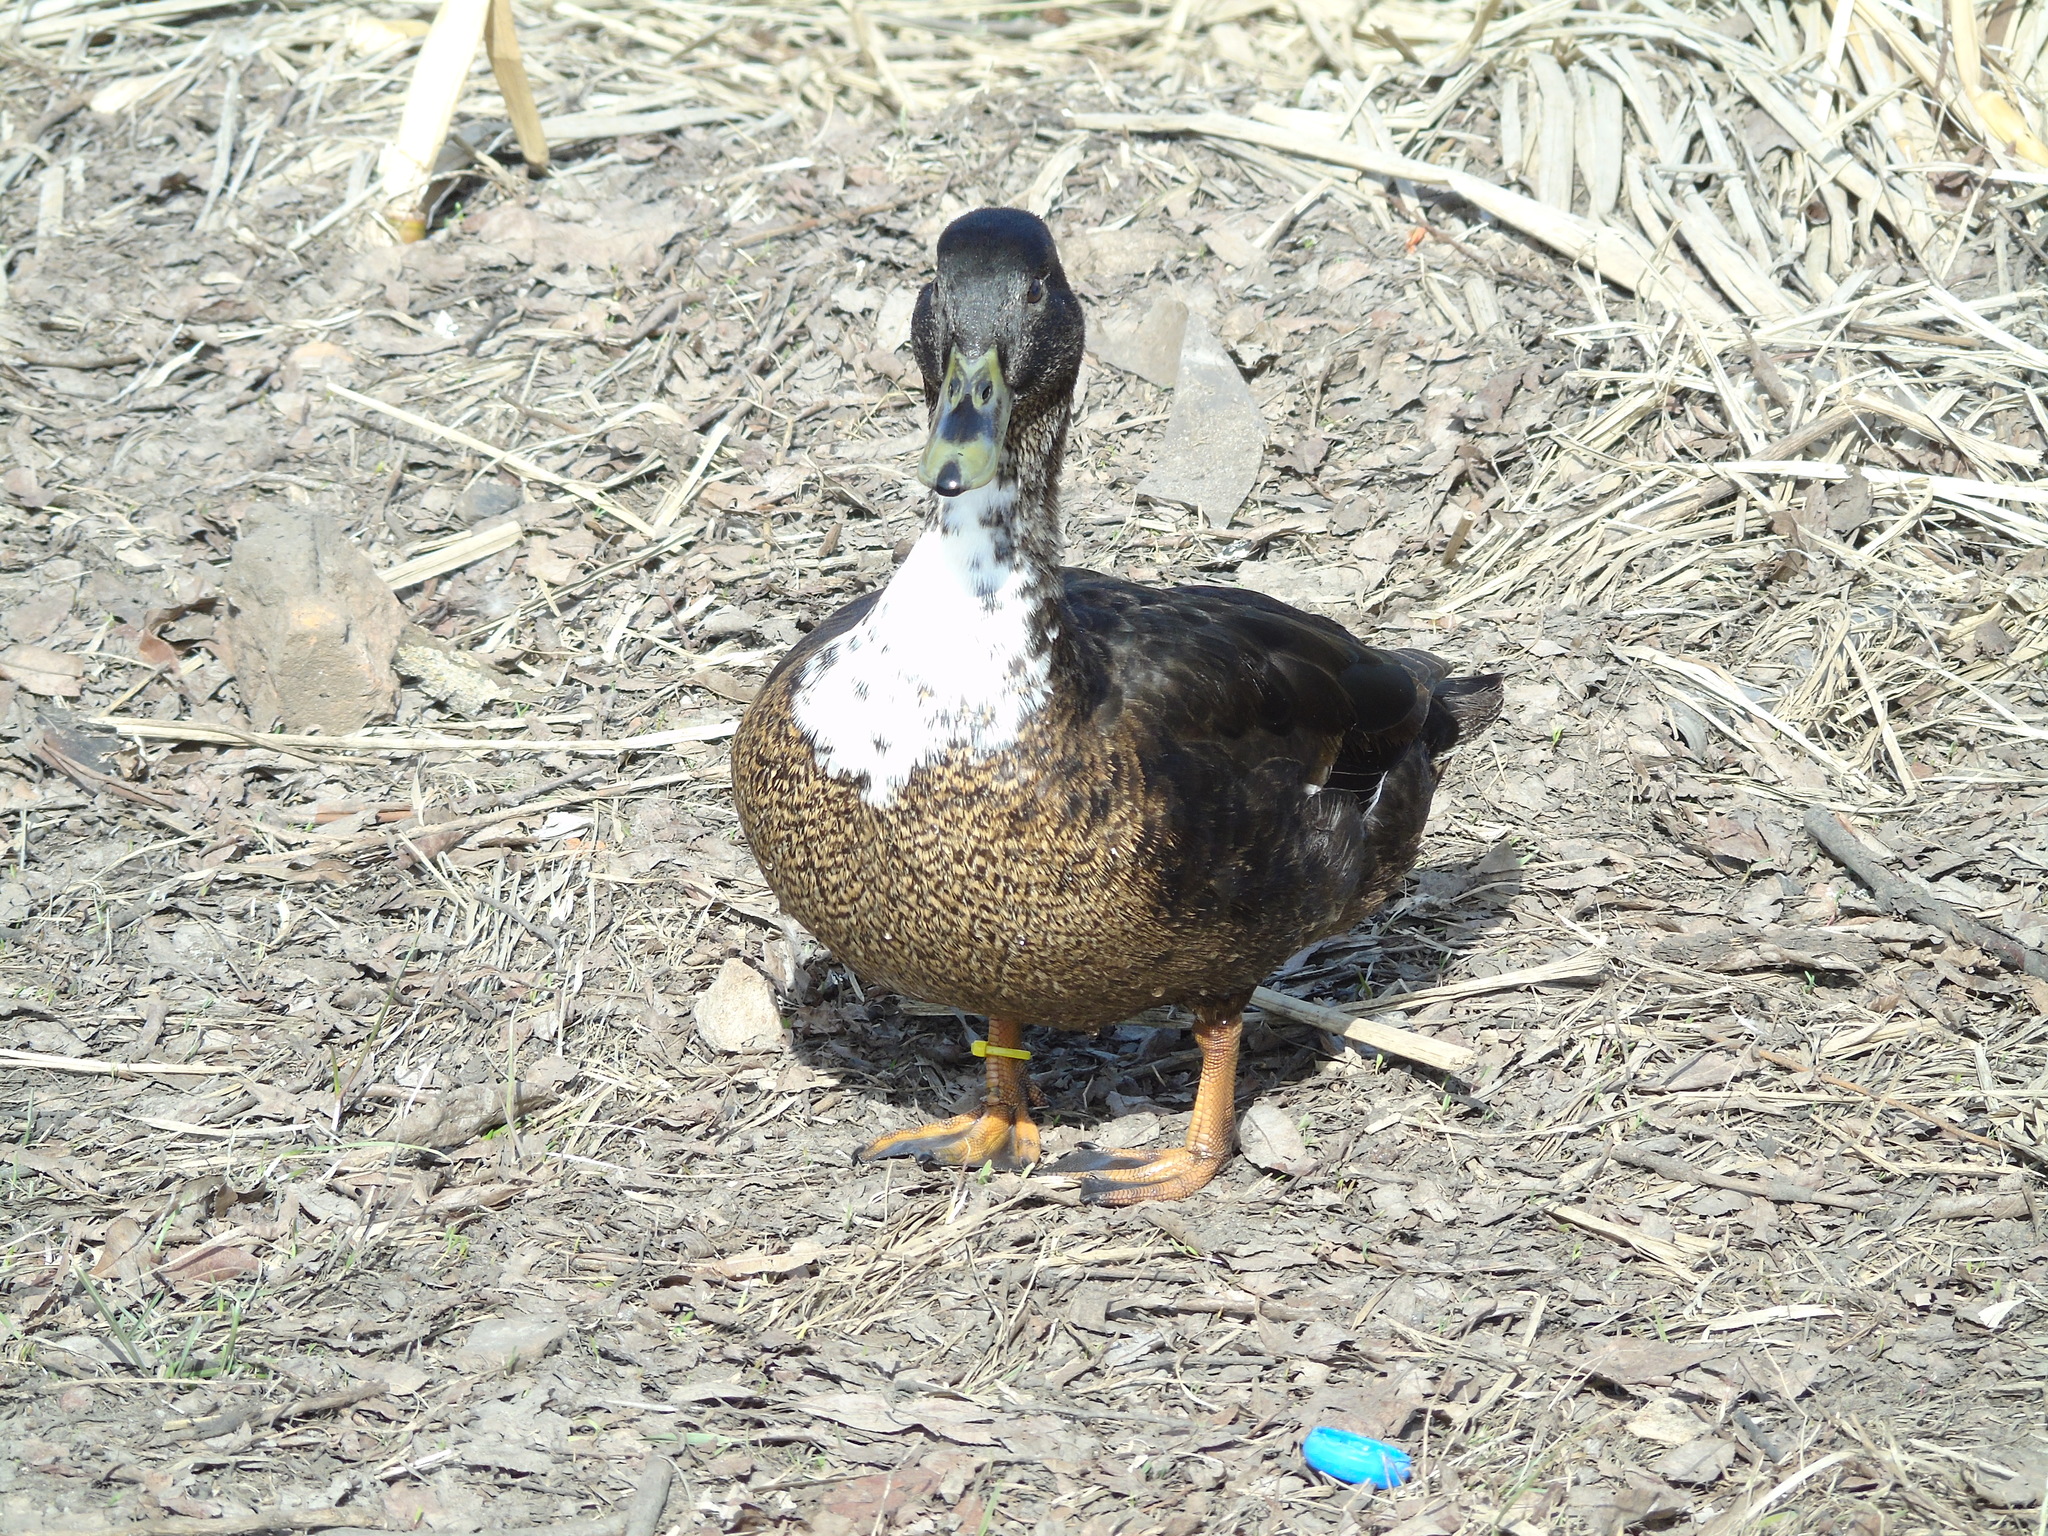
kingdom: Animalia
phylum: Chordata
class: Aves
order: Anseriformes
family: Anatidae
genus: Anas
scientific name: Anas platyrhynchos
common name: Mallard
